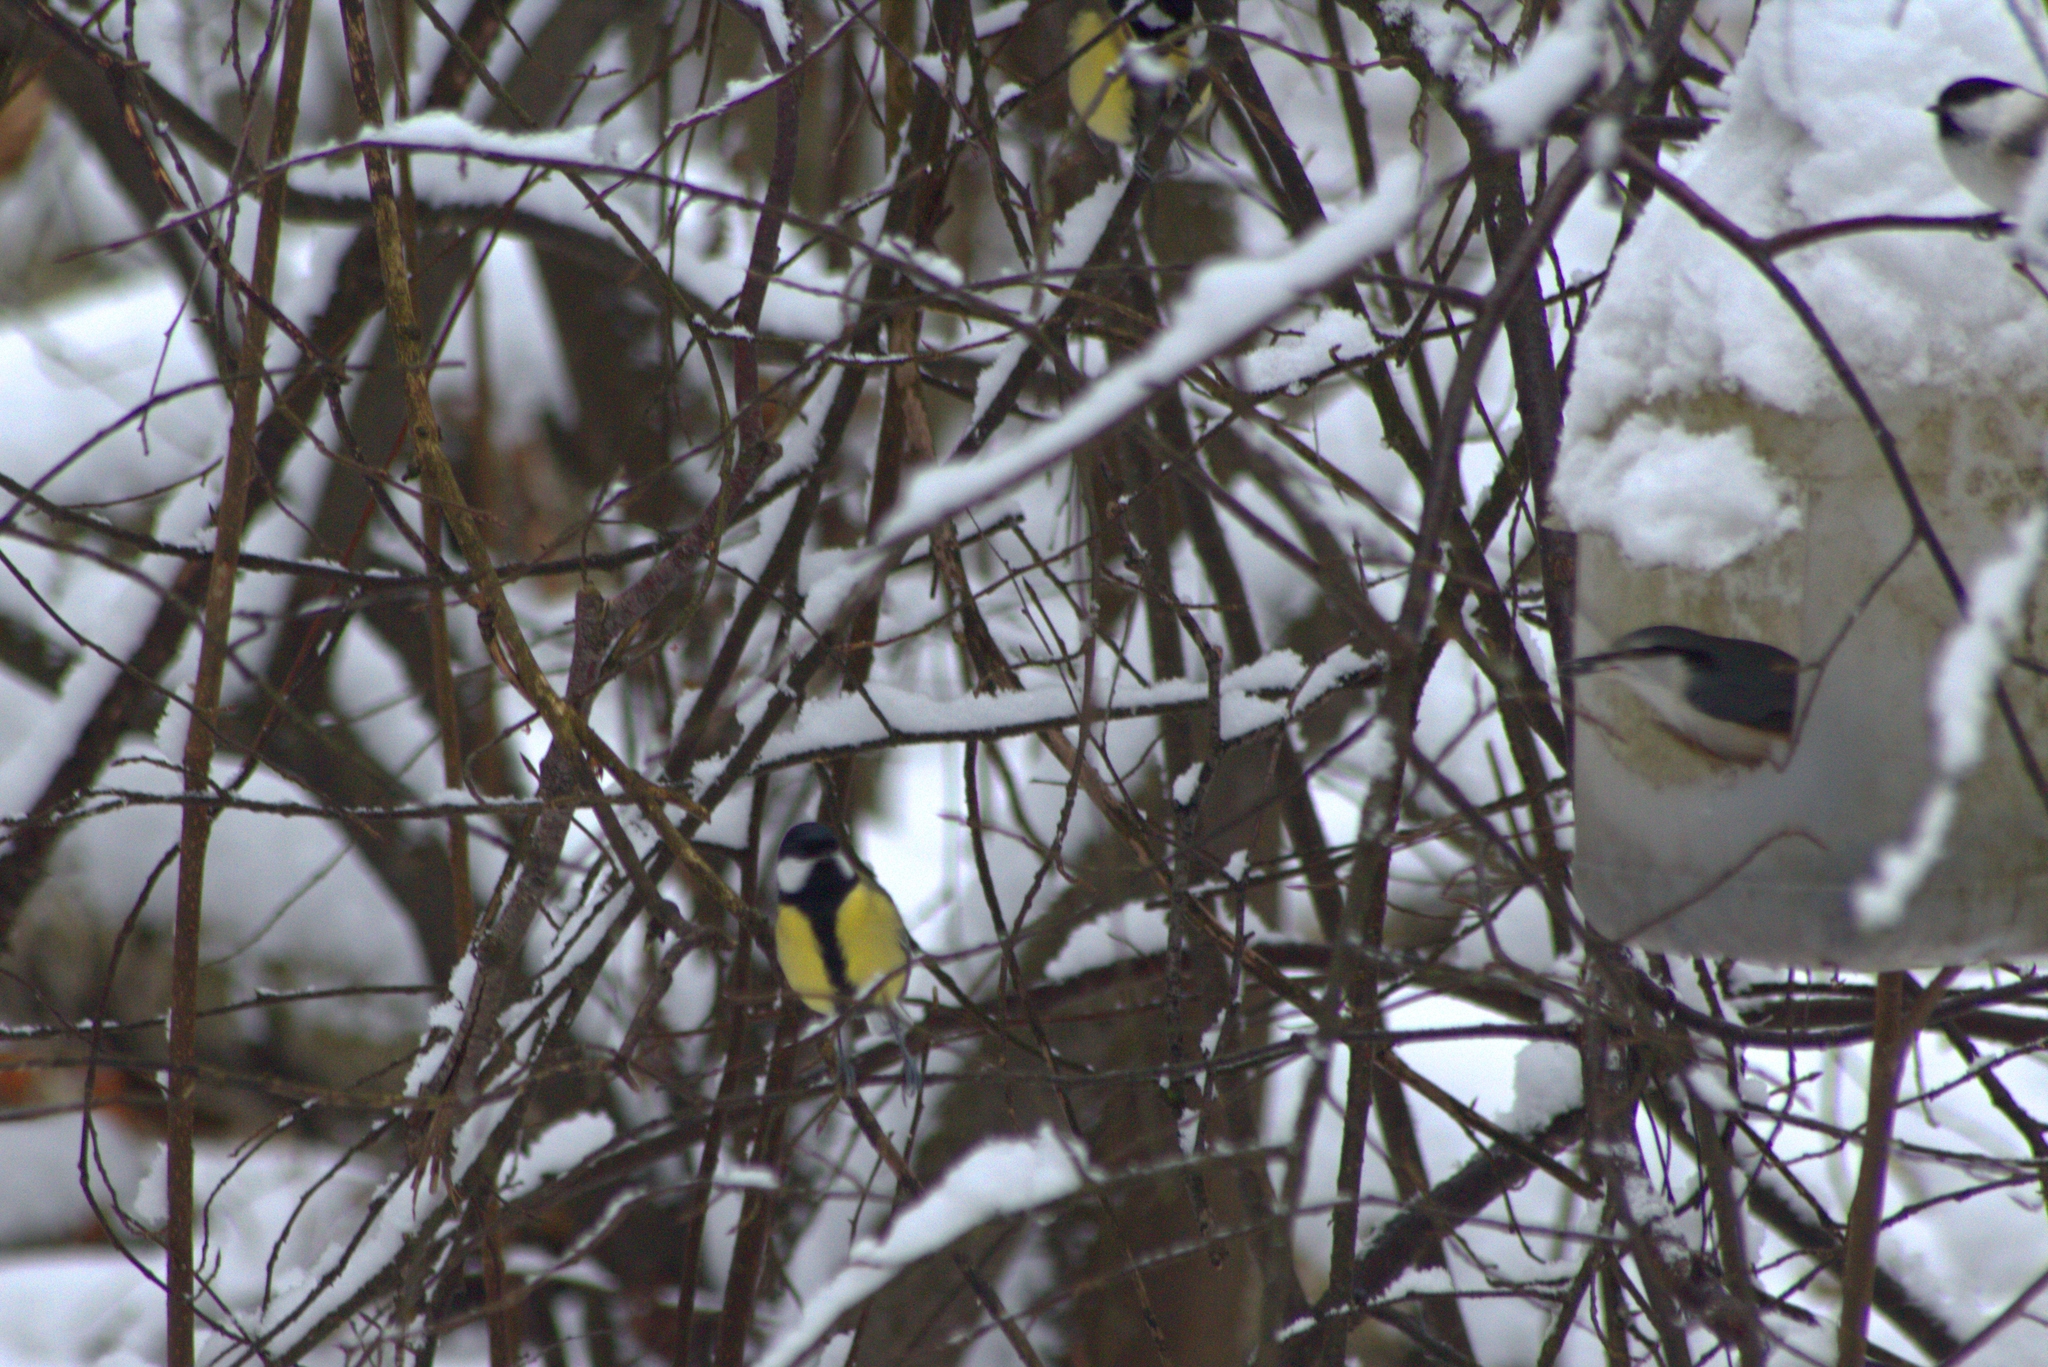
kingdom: Animalia
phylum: Chordata
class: Aves
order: Passeriformes
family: Paridae
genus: Parus
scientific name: Parus major
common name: Great tit
